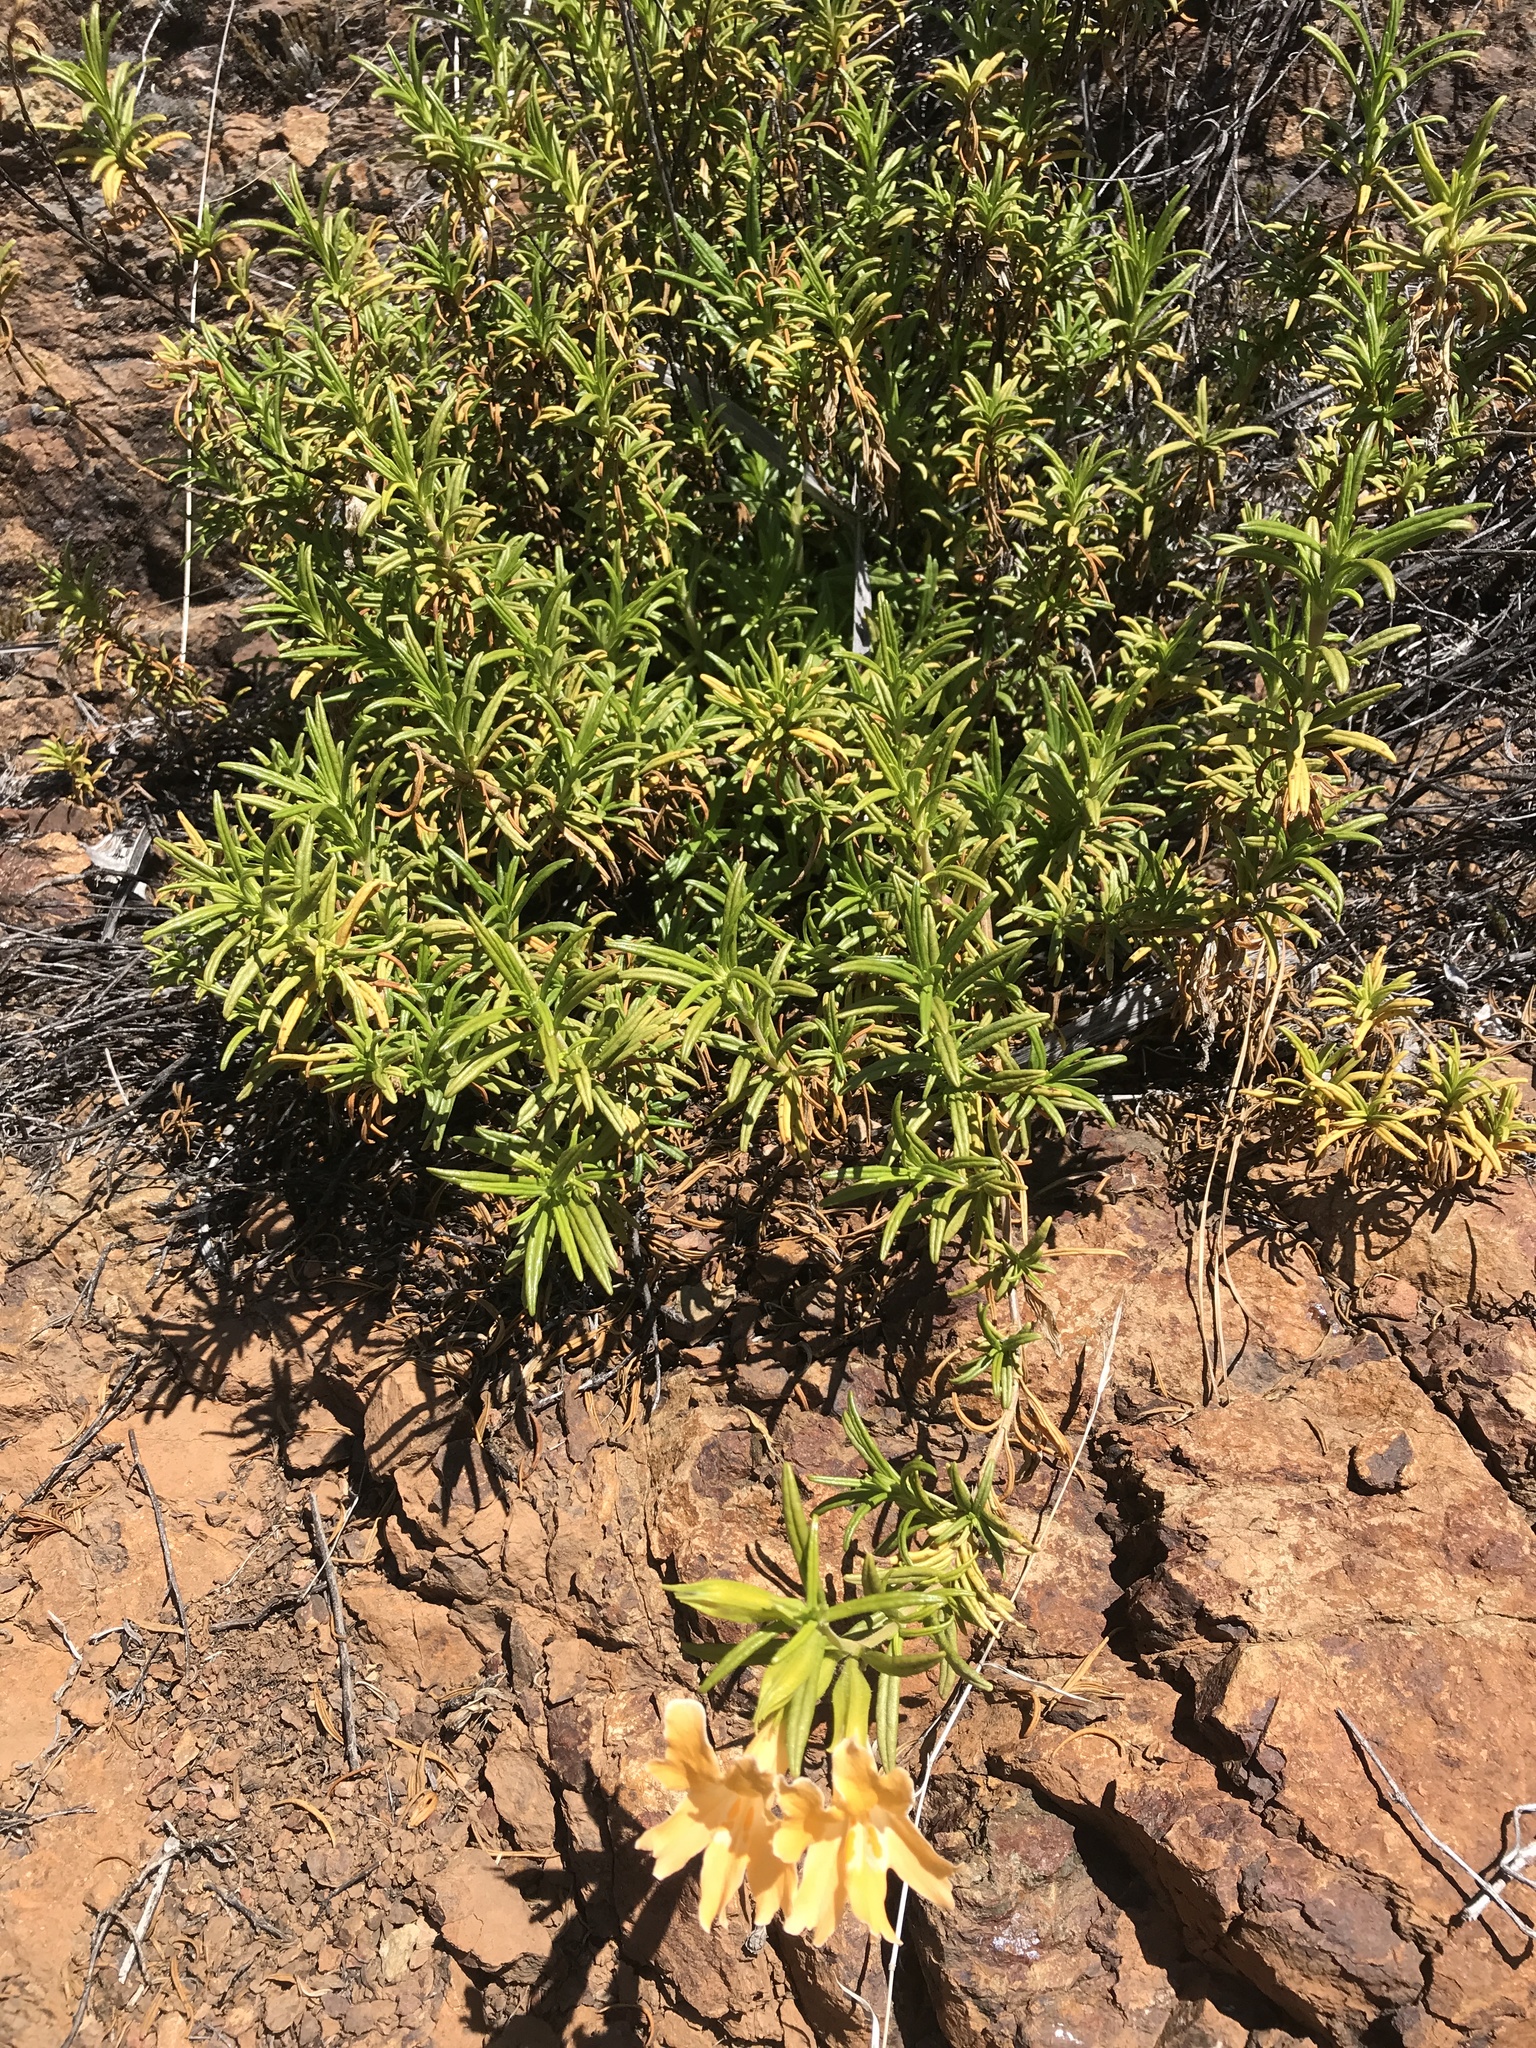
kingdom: Plantae
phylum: Tracheophyta
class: Magnoliopsida
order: Lamiales
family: Phrymaceae
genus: Diplacus
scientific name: Diplacus aurantiacus
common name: Bush monkey-flower
